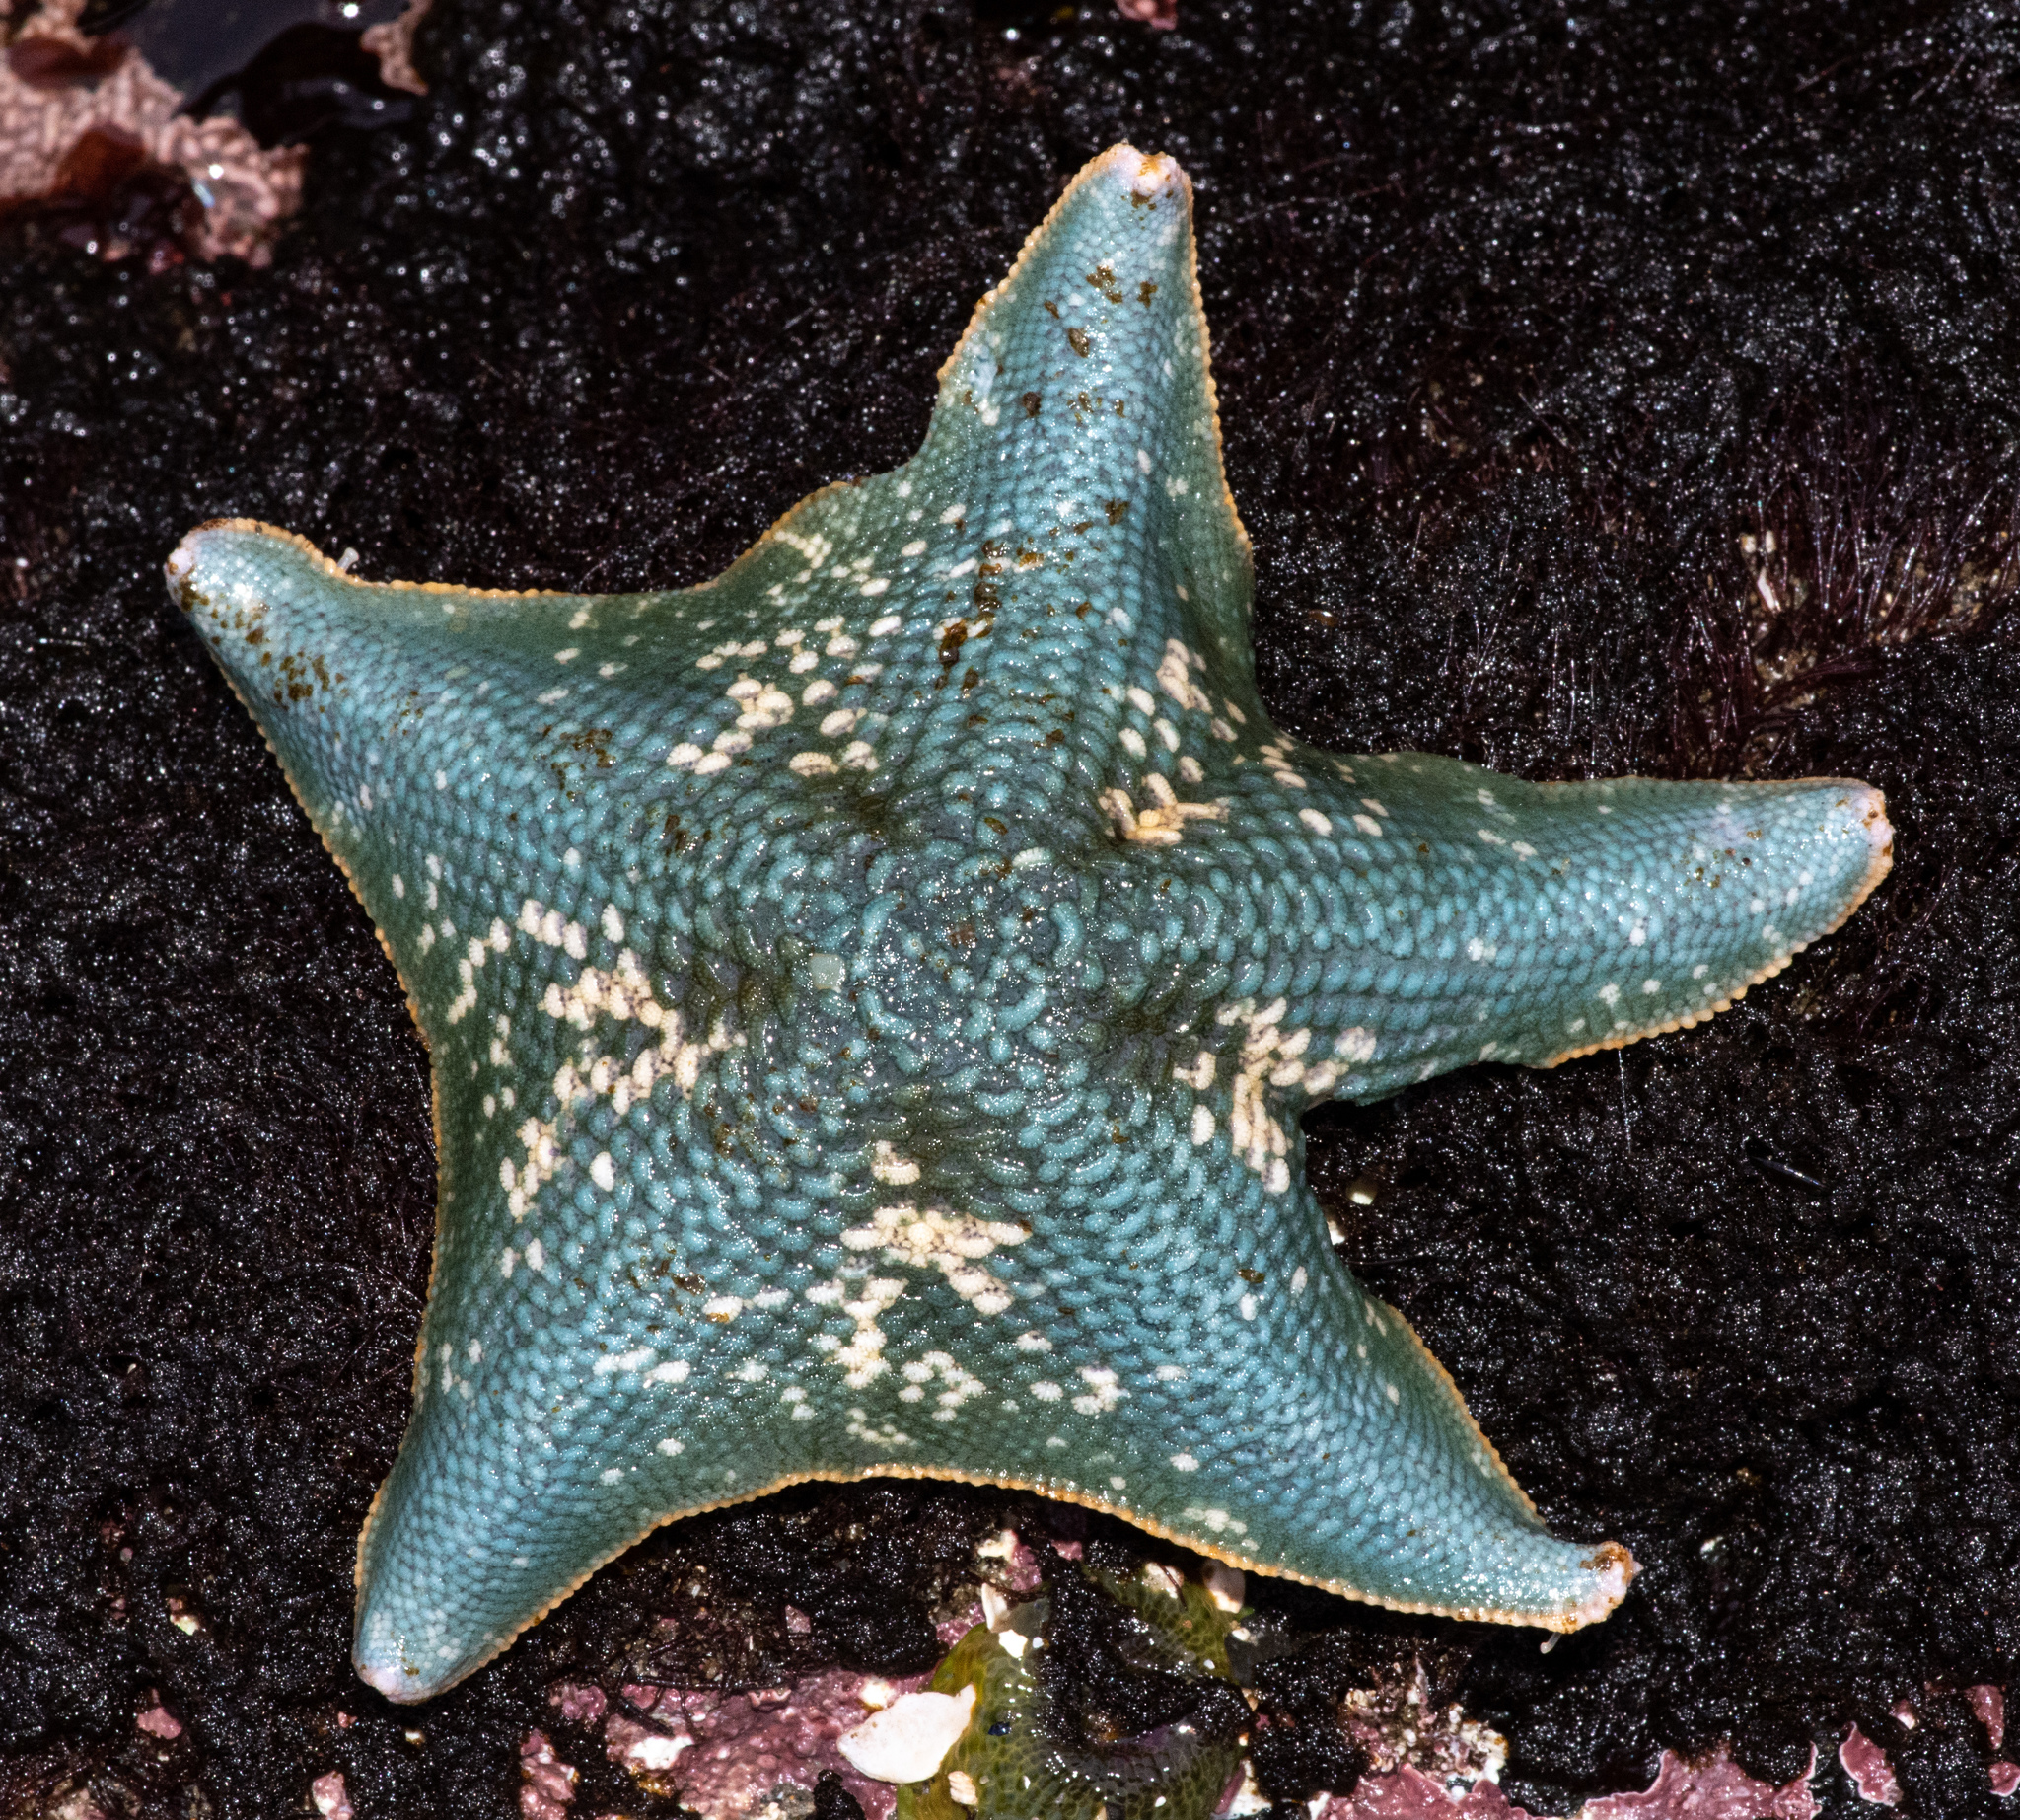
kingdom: Animalia
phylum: Echinodermata
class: Asteroidea
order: Valvatida
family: Asterinidae
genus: Patiria
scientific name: Patiria miniata
